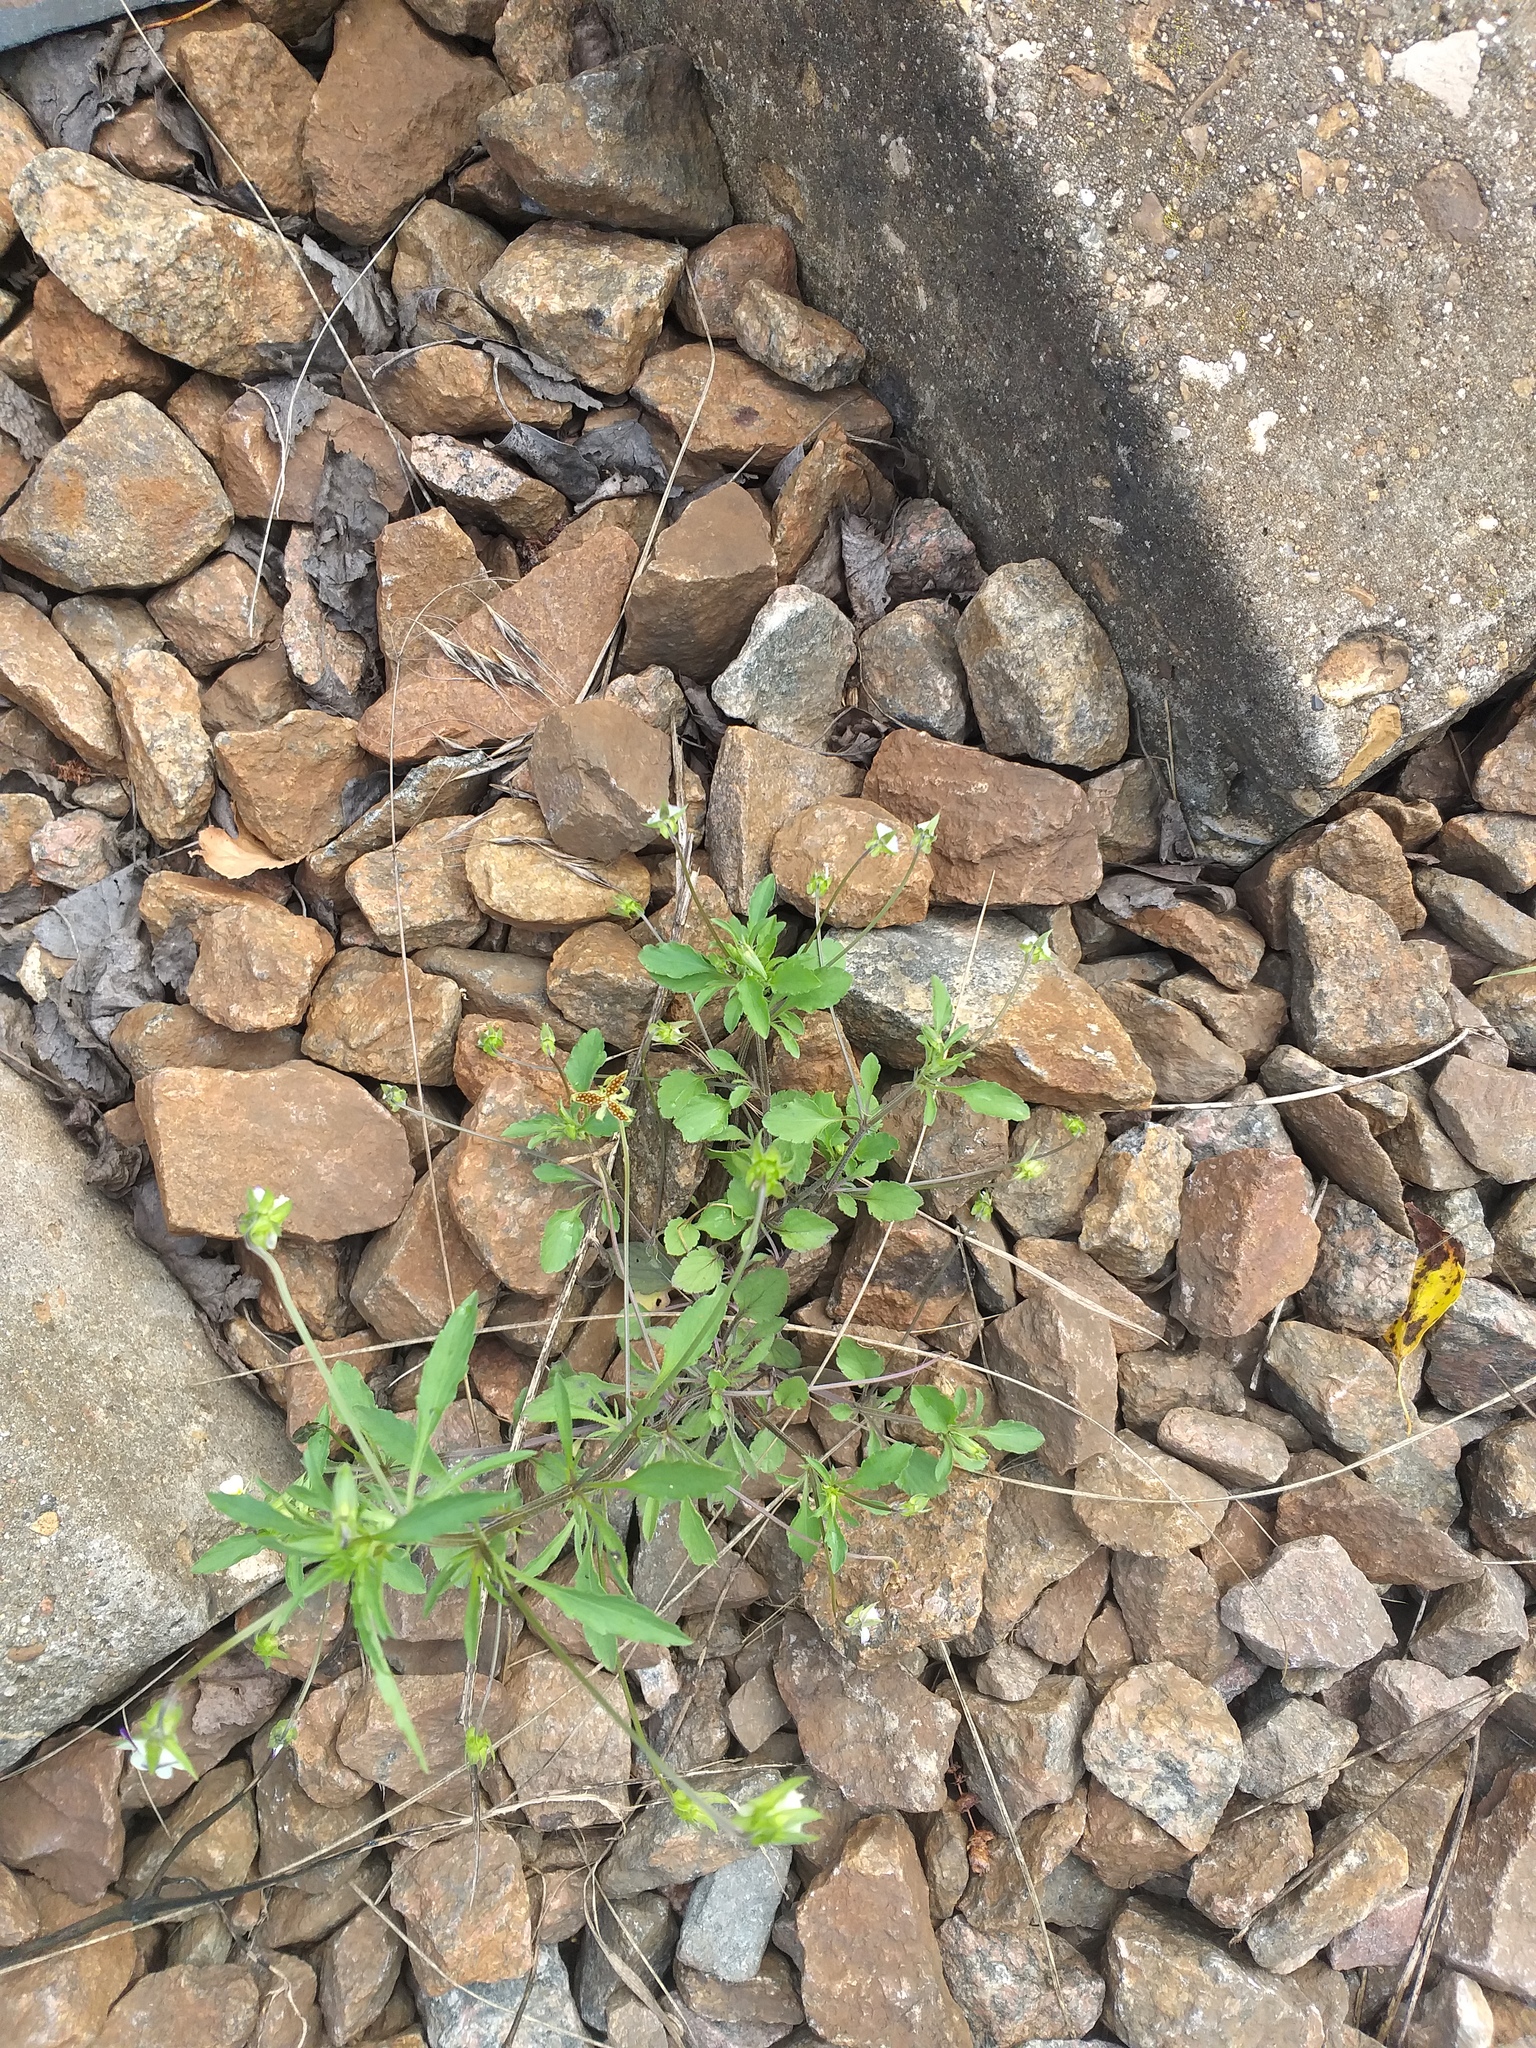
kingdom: Plantae
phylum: Tracheophyta
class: Magnoliopsida
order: Malpighiales
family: Violaceae
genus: Viola
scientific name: Viola arvensis
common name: Field pansy
